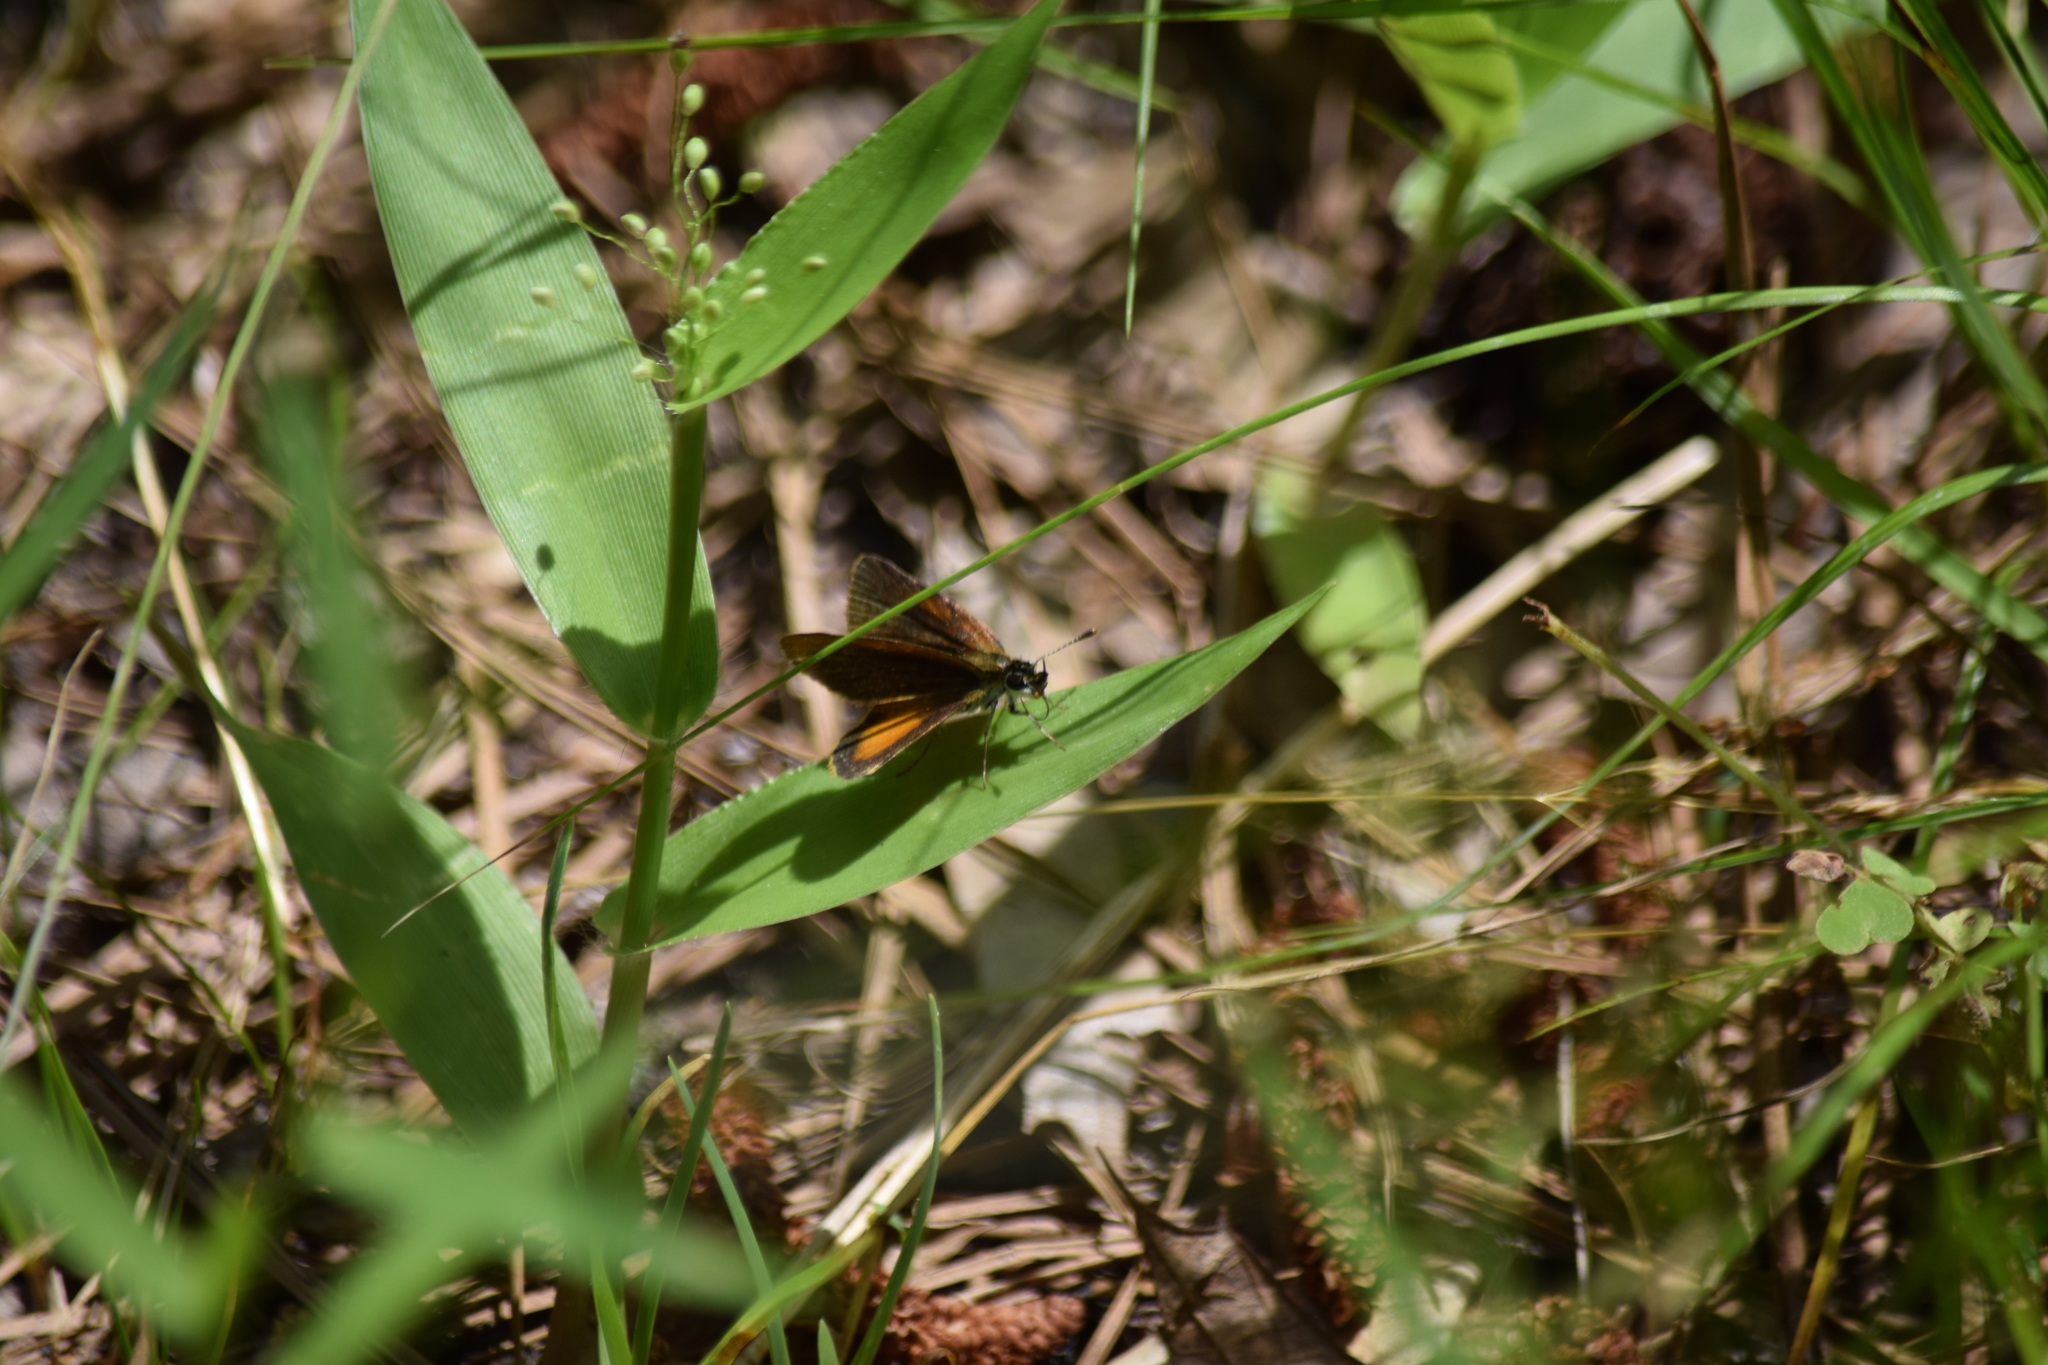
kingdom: Animalia
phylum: Arthropoda
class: Insecta
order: Lepidoptera
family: Hesperiidae
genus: Ancyloxypha
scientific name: Ancyloxypha numitor
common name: Least skipper
